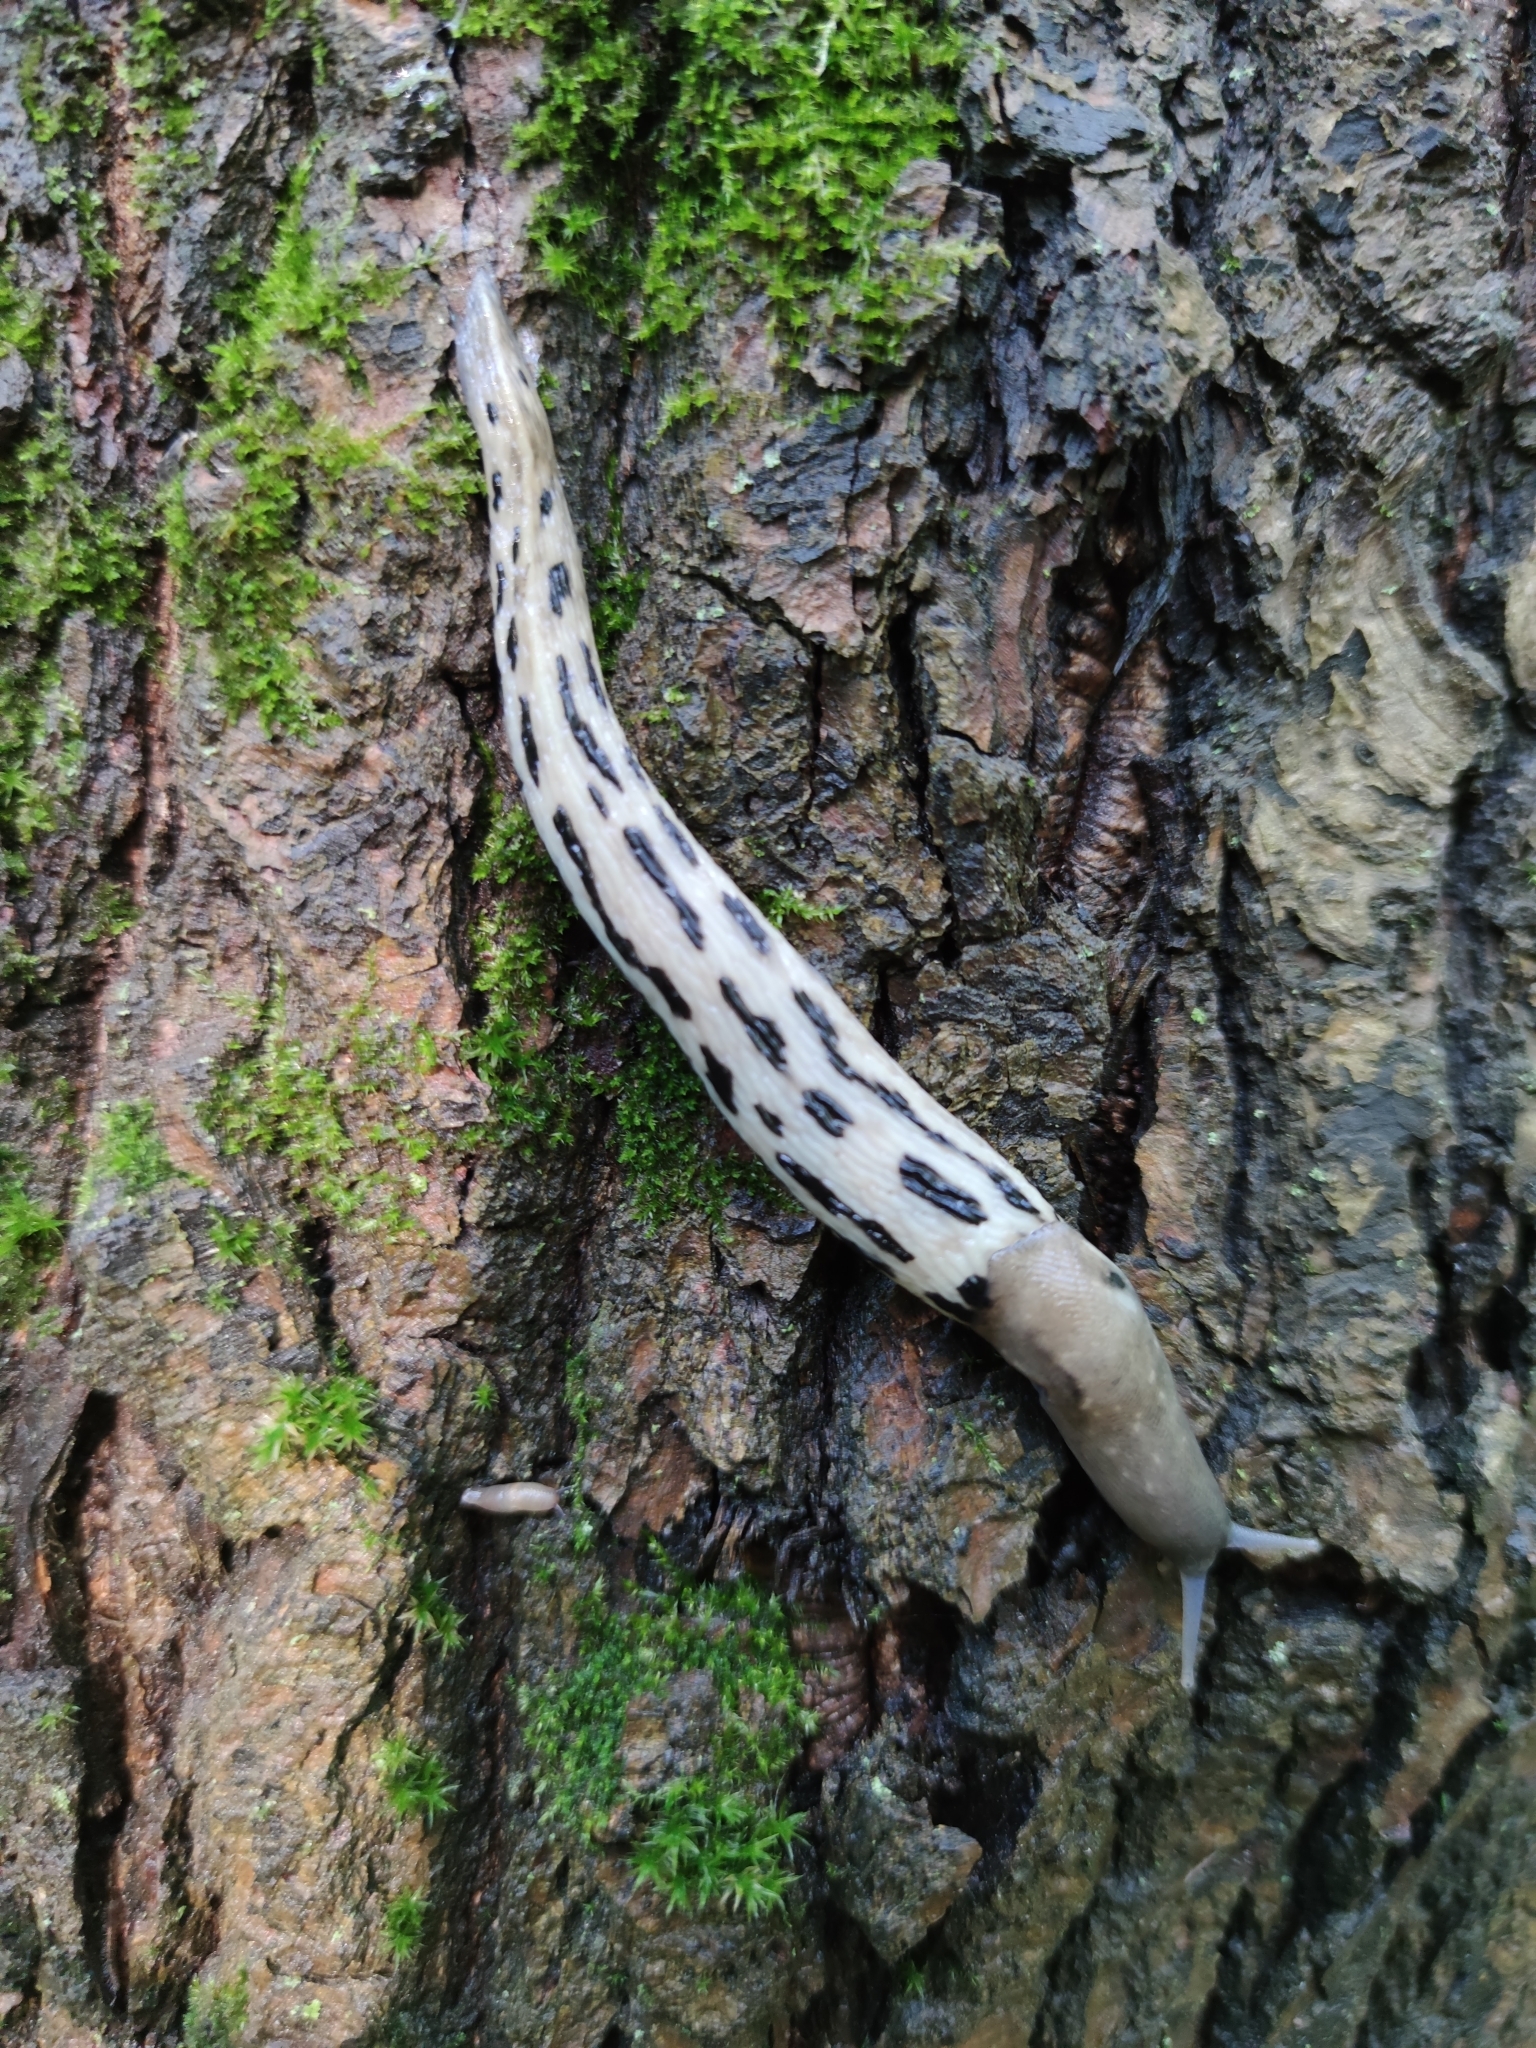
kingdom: Animalia
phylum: Mollusca
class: Gastropoda
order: Stylommatophora
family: Limacidae
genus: Limax
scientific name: Limax cinereoniger
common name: Ash-black slug
